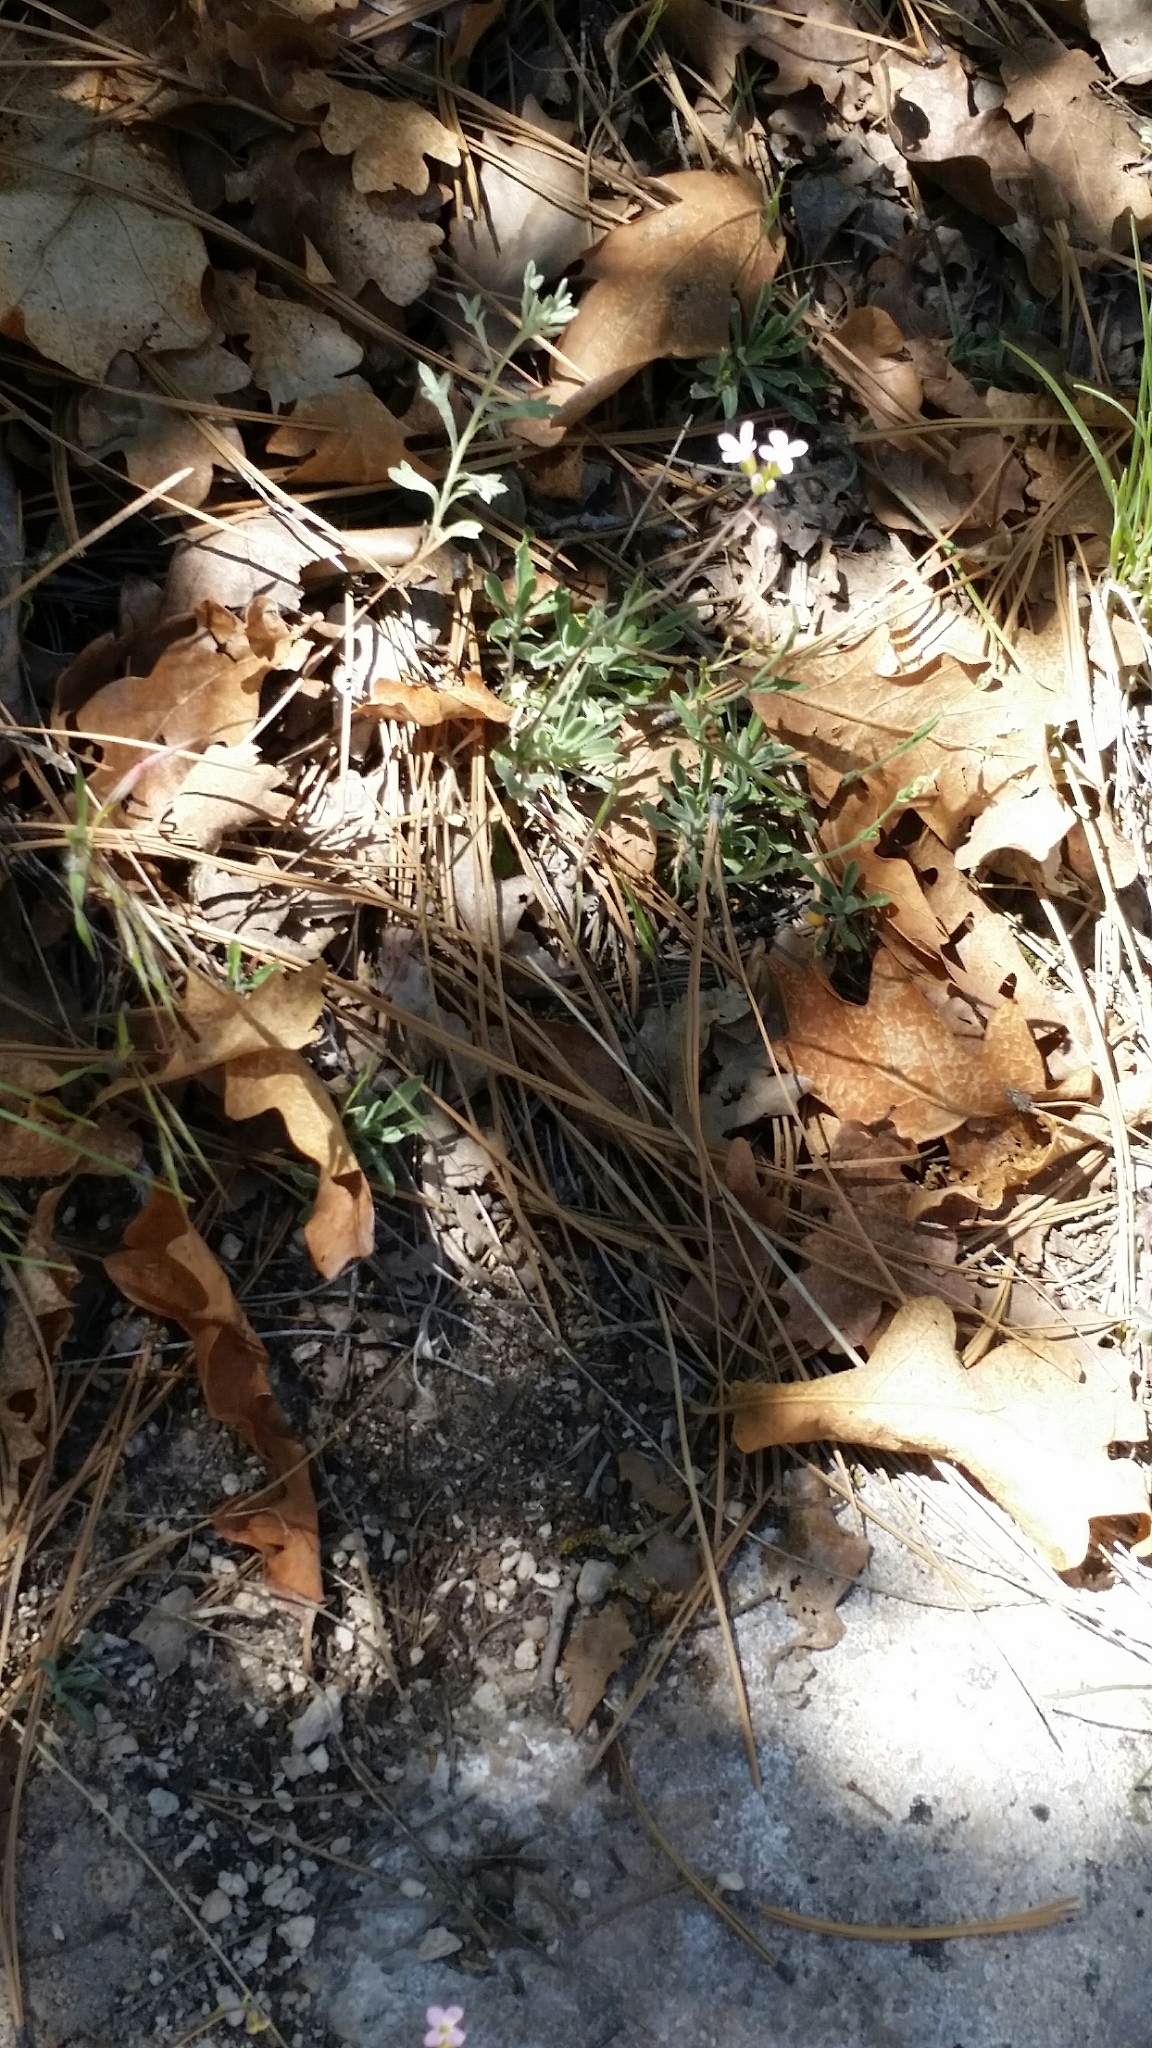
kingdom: Plantae
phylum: Tracheophyta
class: Magnoliopsida
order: Brassicales
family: Brassicaceae
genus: Boechera
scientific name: Boechera fendleri
